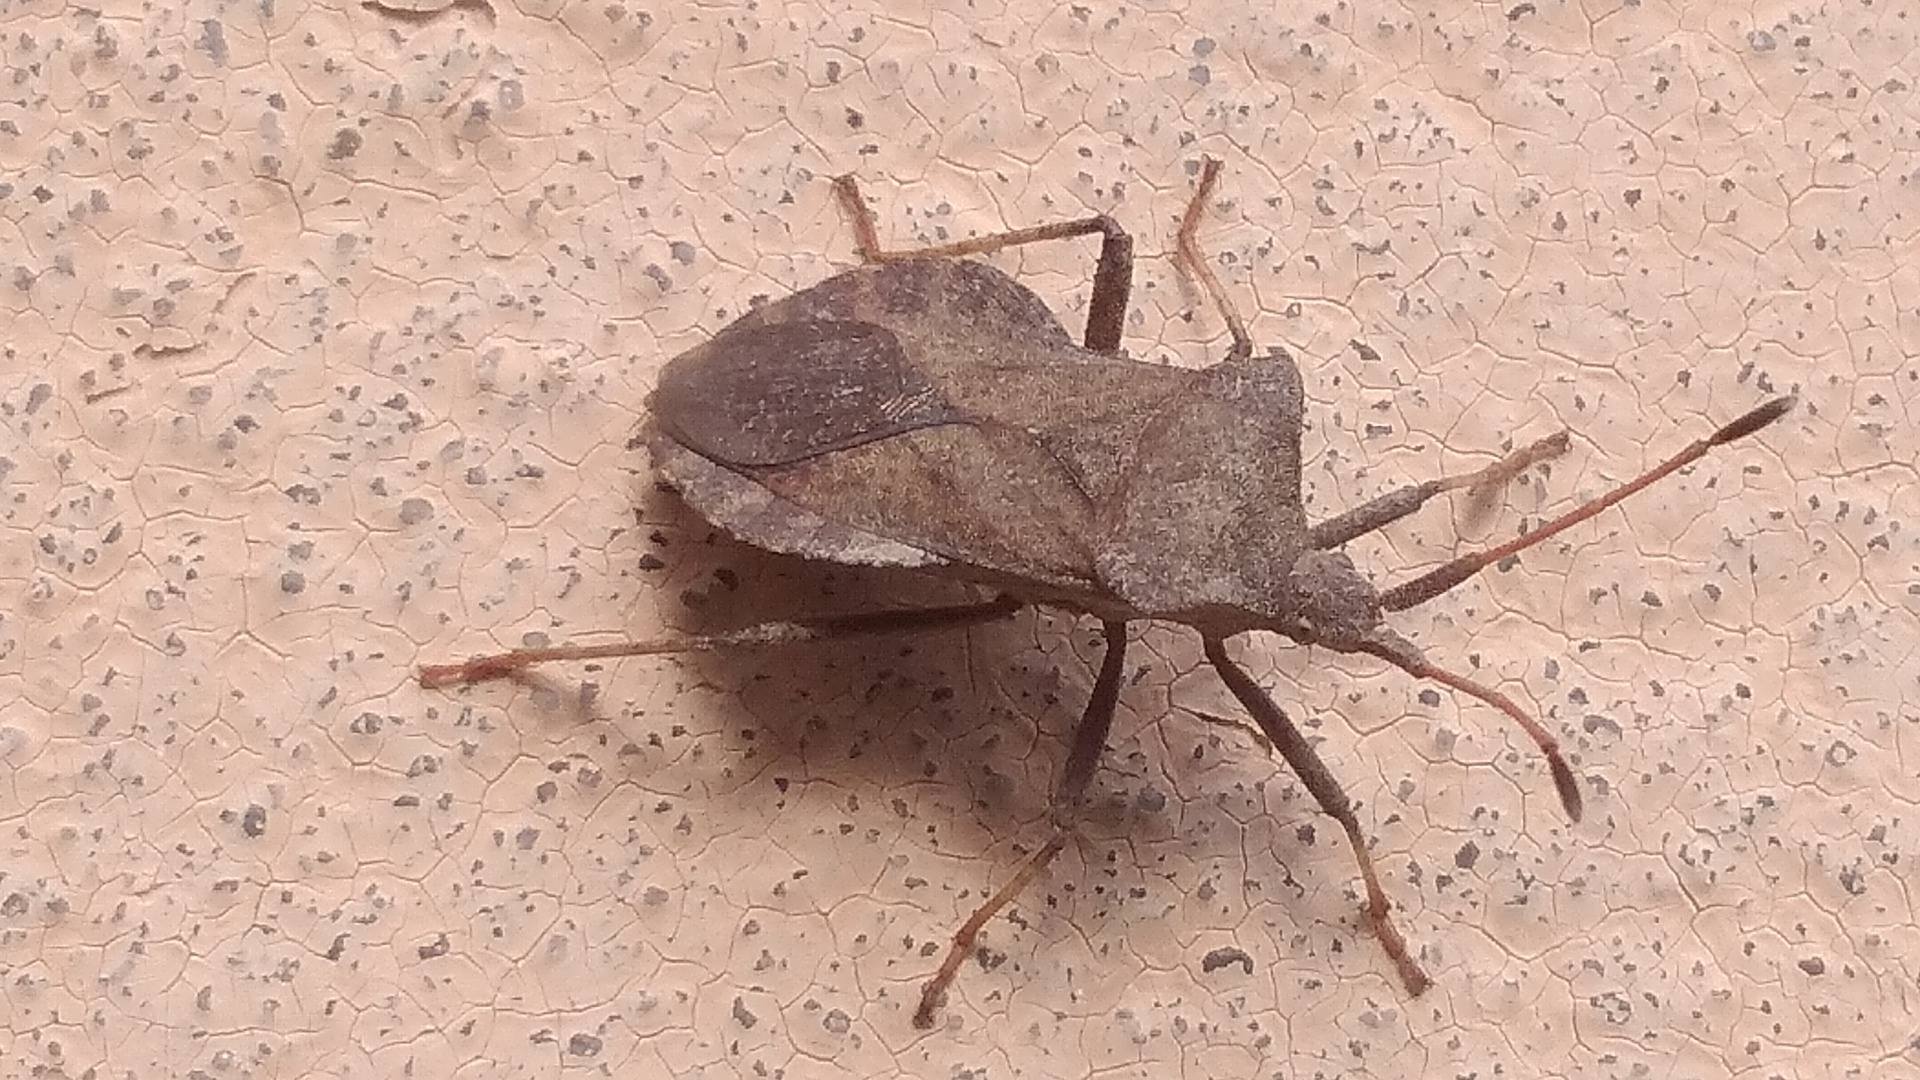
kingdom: Animalia
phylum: Arthropoda
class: Insecta
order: Hemiptera
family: Coreidae
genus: Coreus
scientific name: Coreus marginatus
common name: Dock bug
